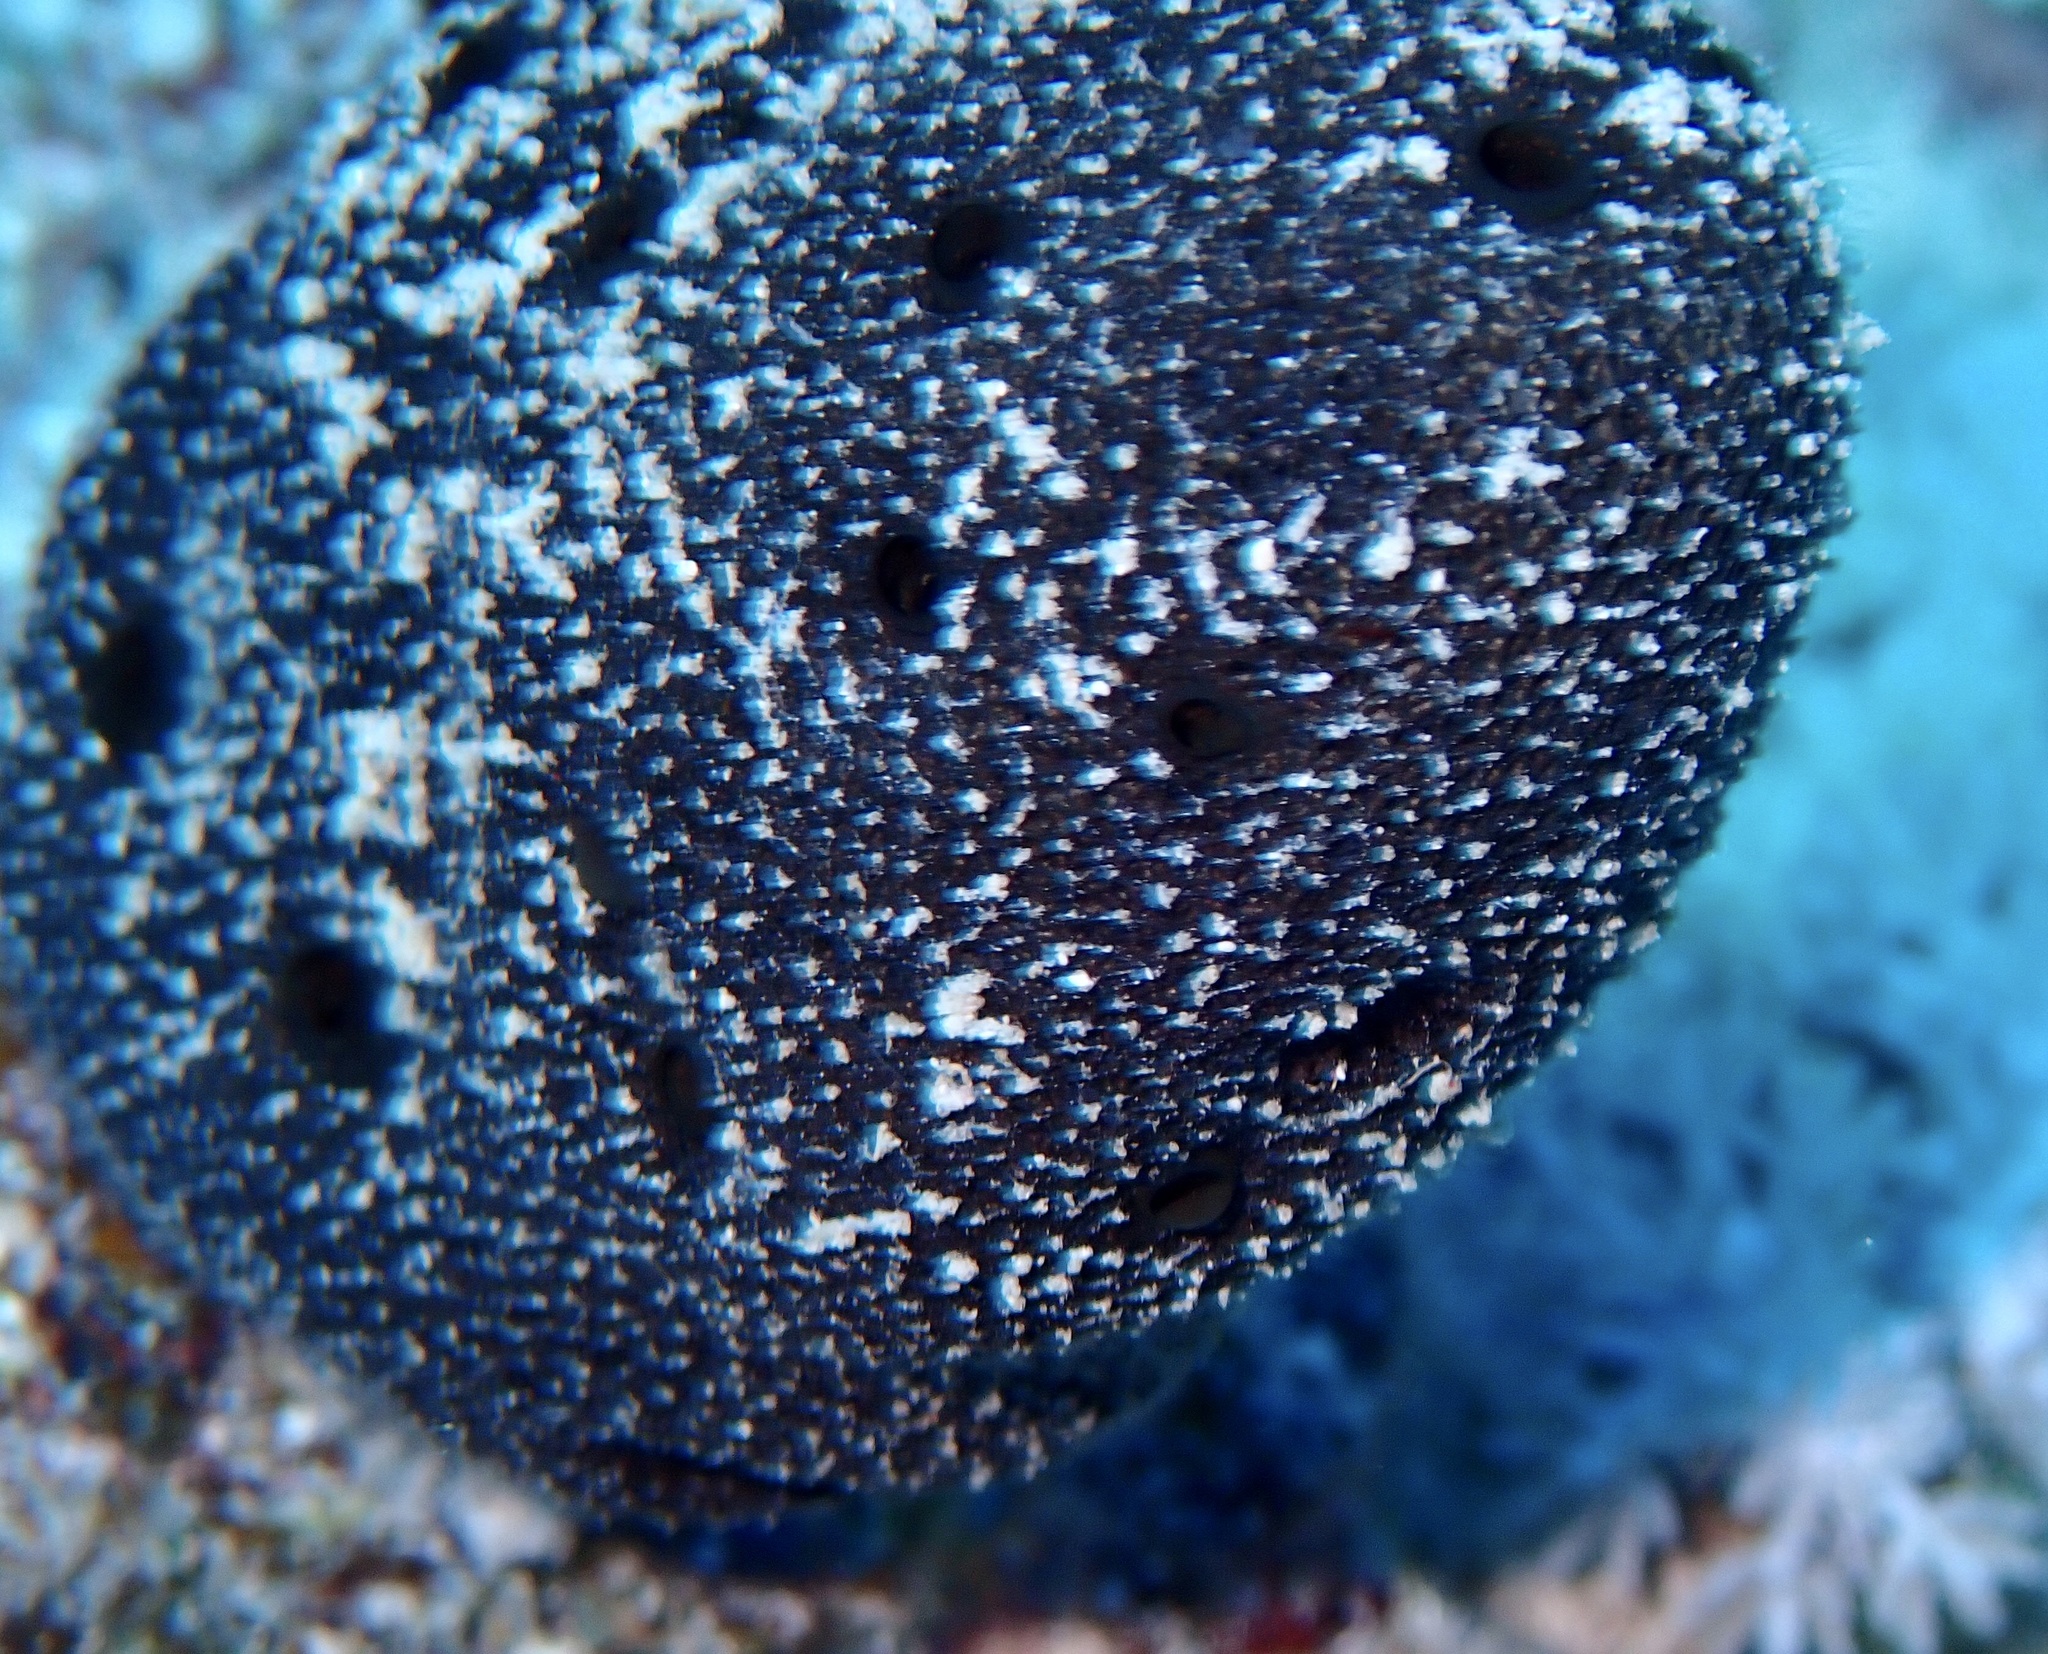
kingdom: Animalia
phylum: Porifera
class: Demospongiae
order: Dictyoceratida
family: Thorectidae
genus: Hyrtios
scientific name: Hyrtios erectus
